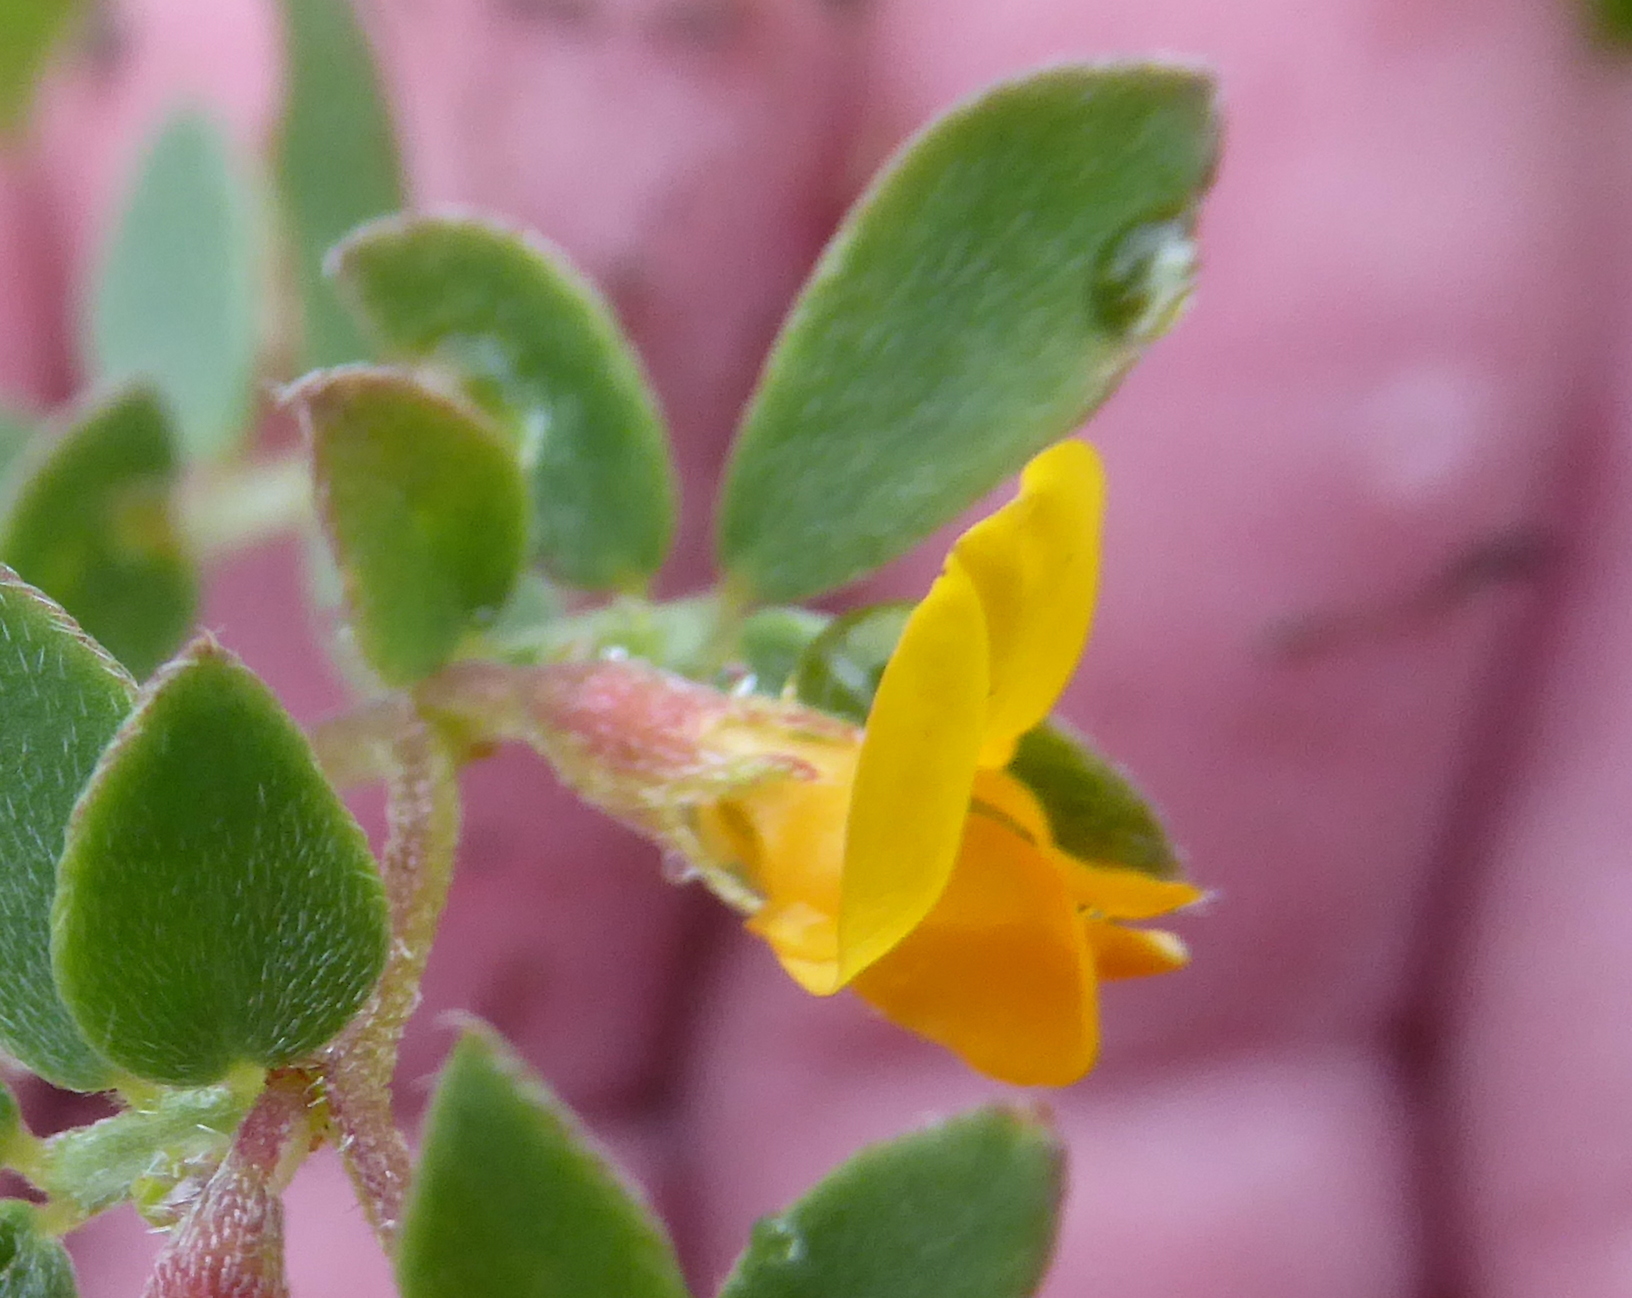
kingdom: Plantae
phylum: Tracheophyta
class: Magnoliopsida
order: Fabales
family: Fabaceae
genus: Acmispon
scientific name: Acmispon wrangelianus
